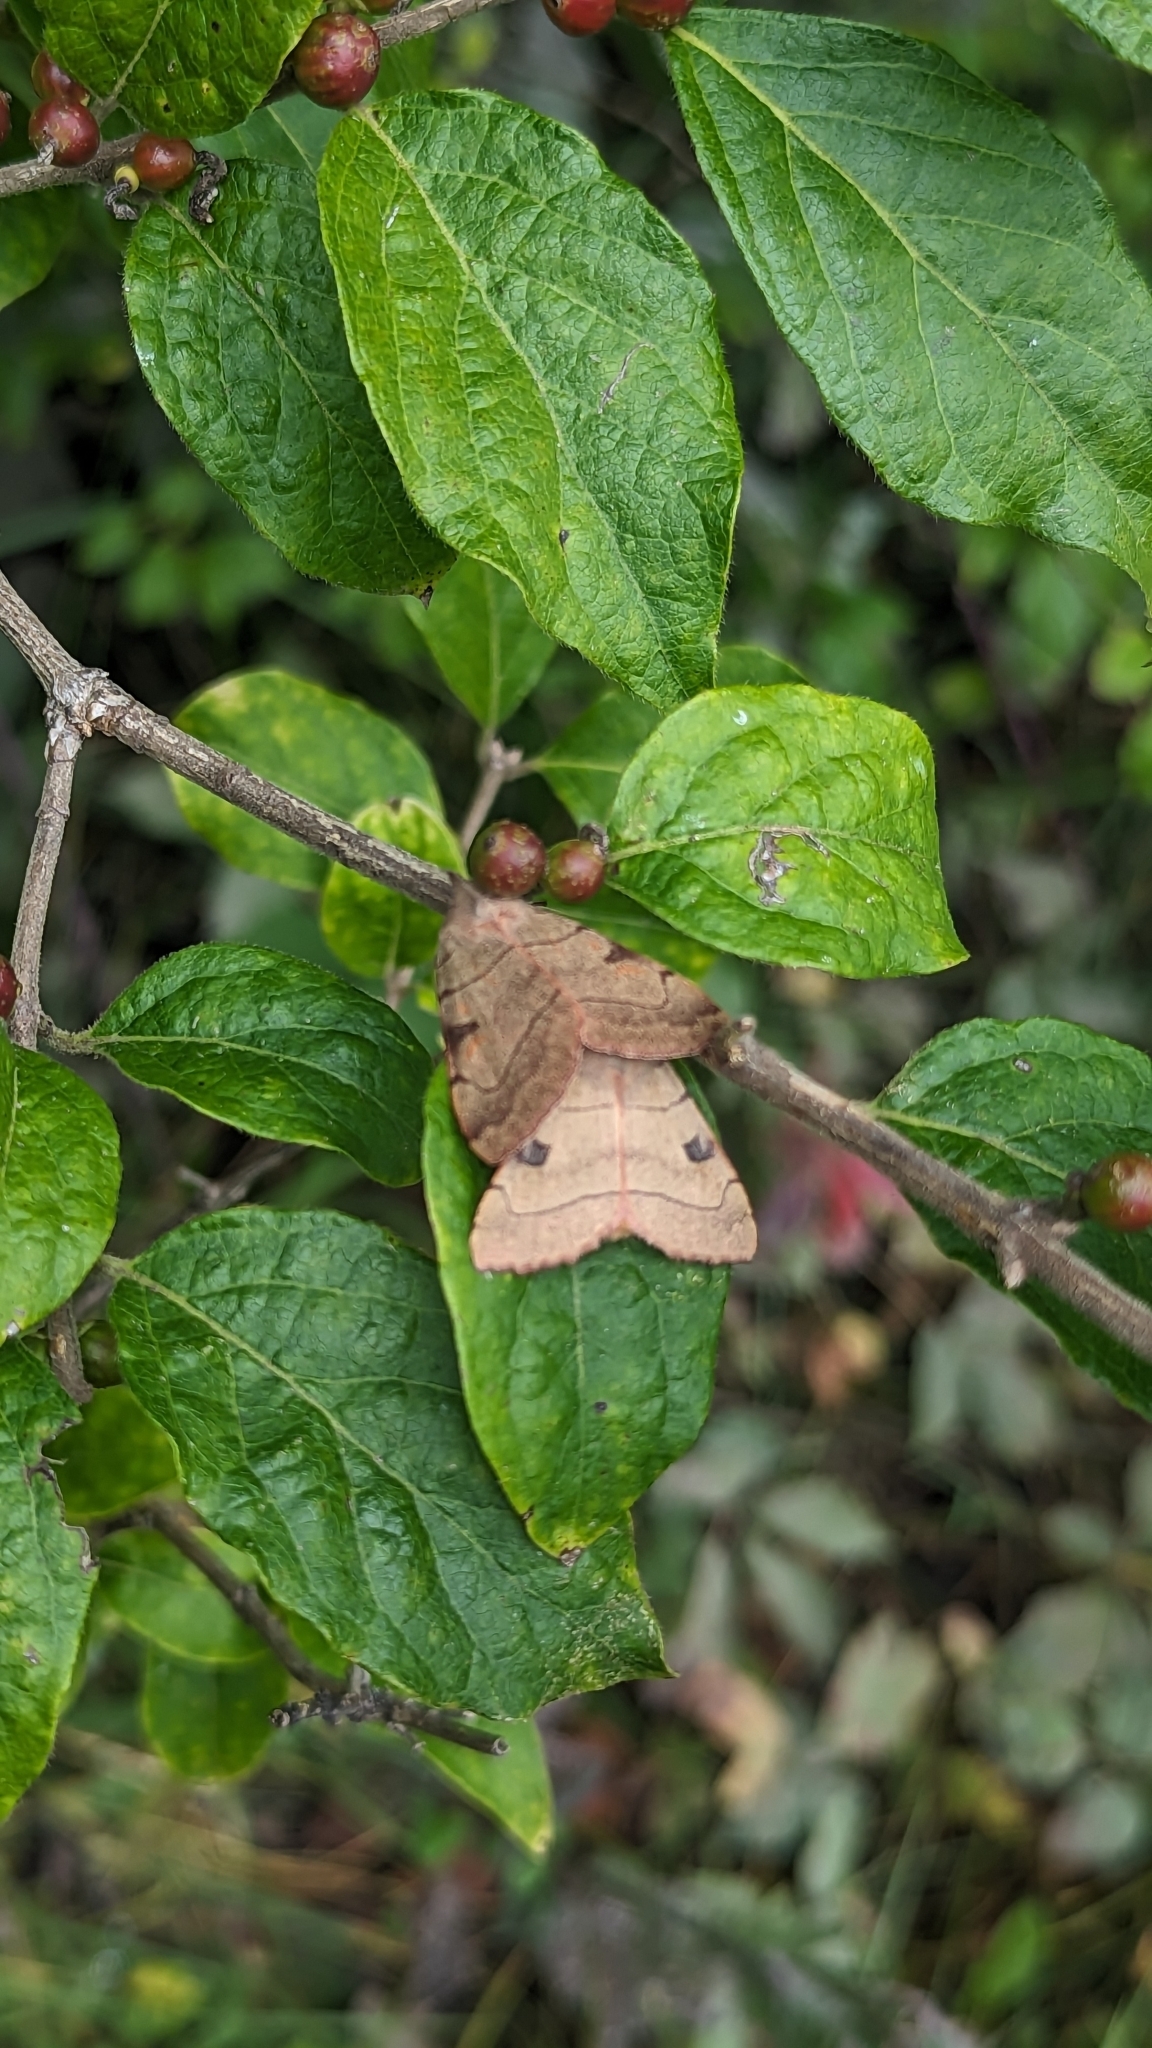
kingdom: Animalia
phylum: Arthropoda
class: Insecta
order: Lepidoptera
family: Noctuidae
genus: Choephora
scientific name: Choephora fungorum
